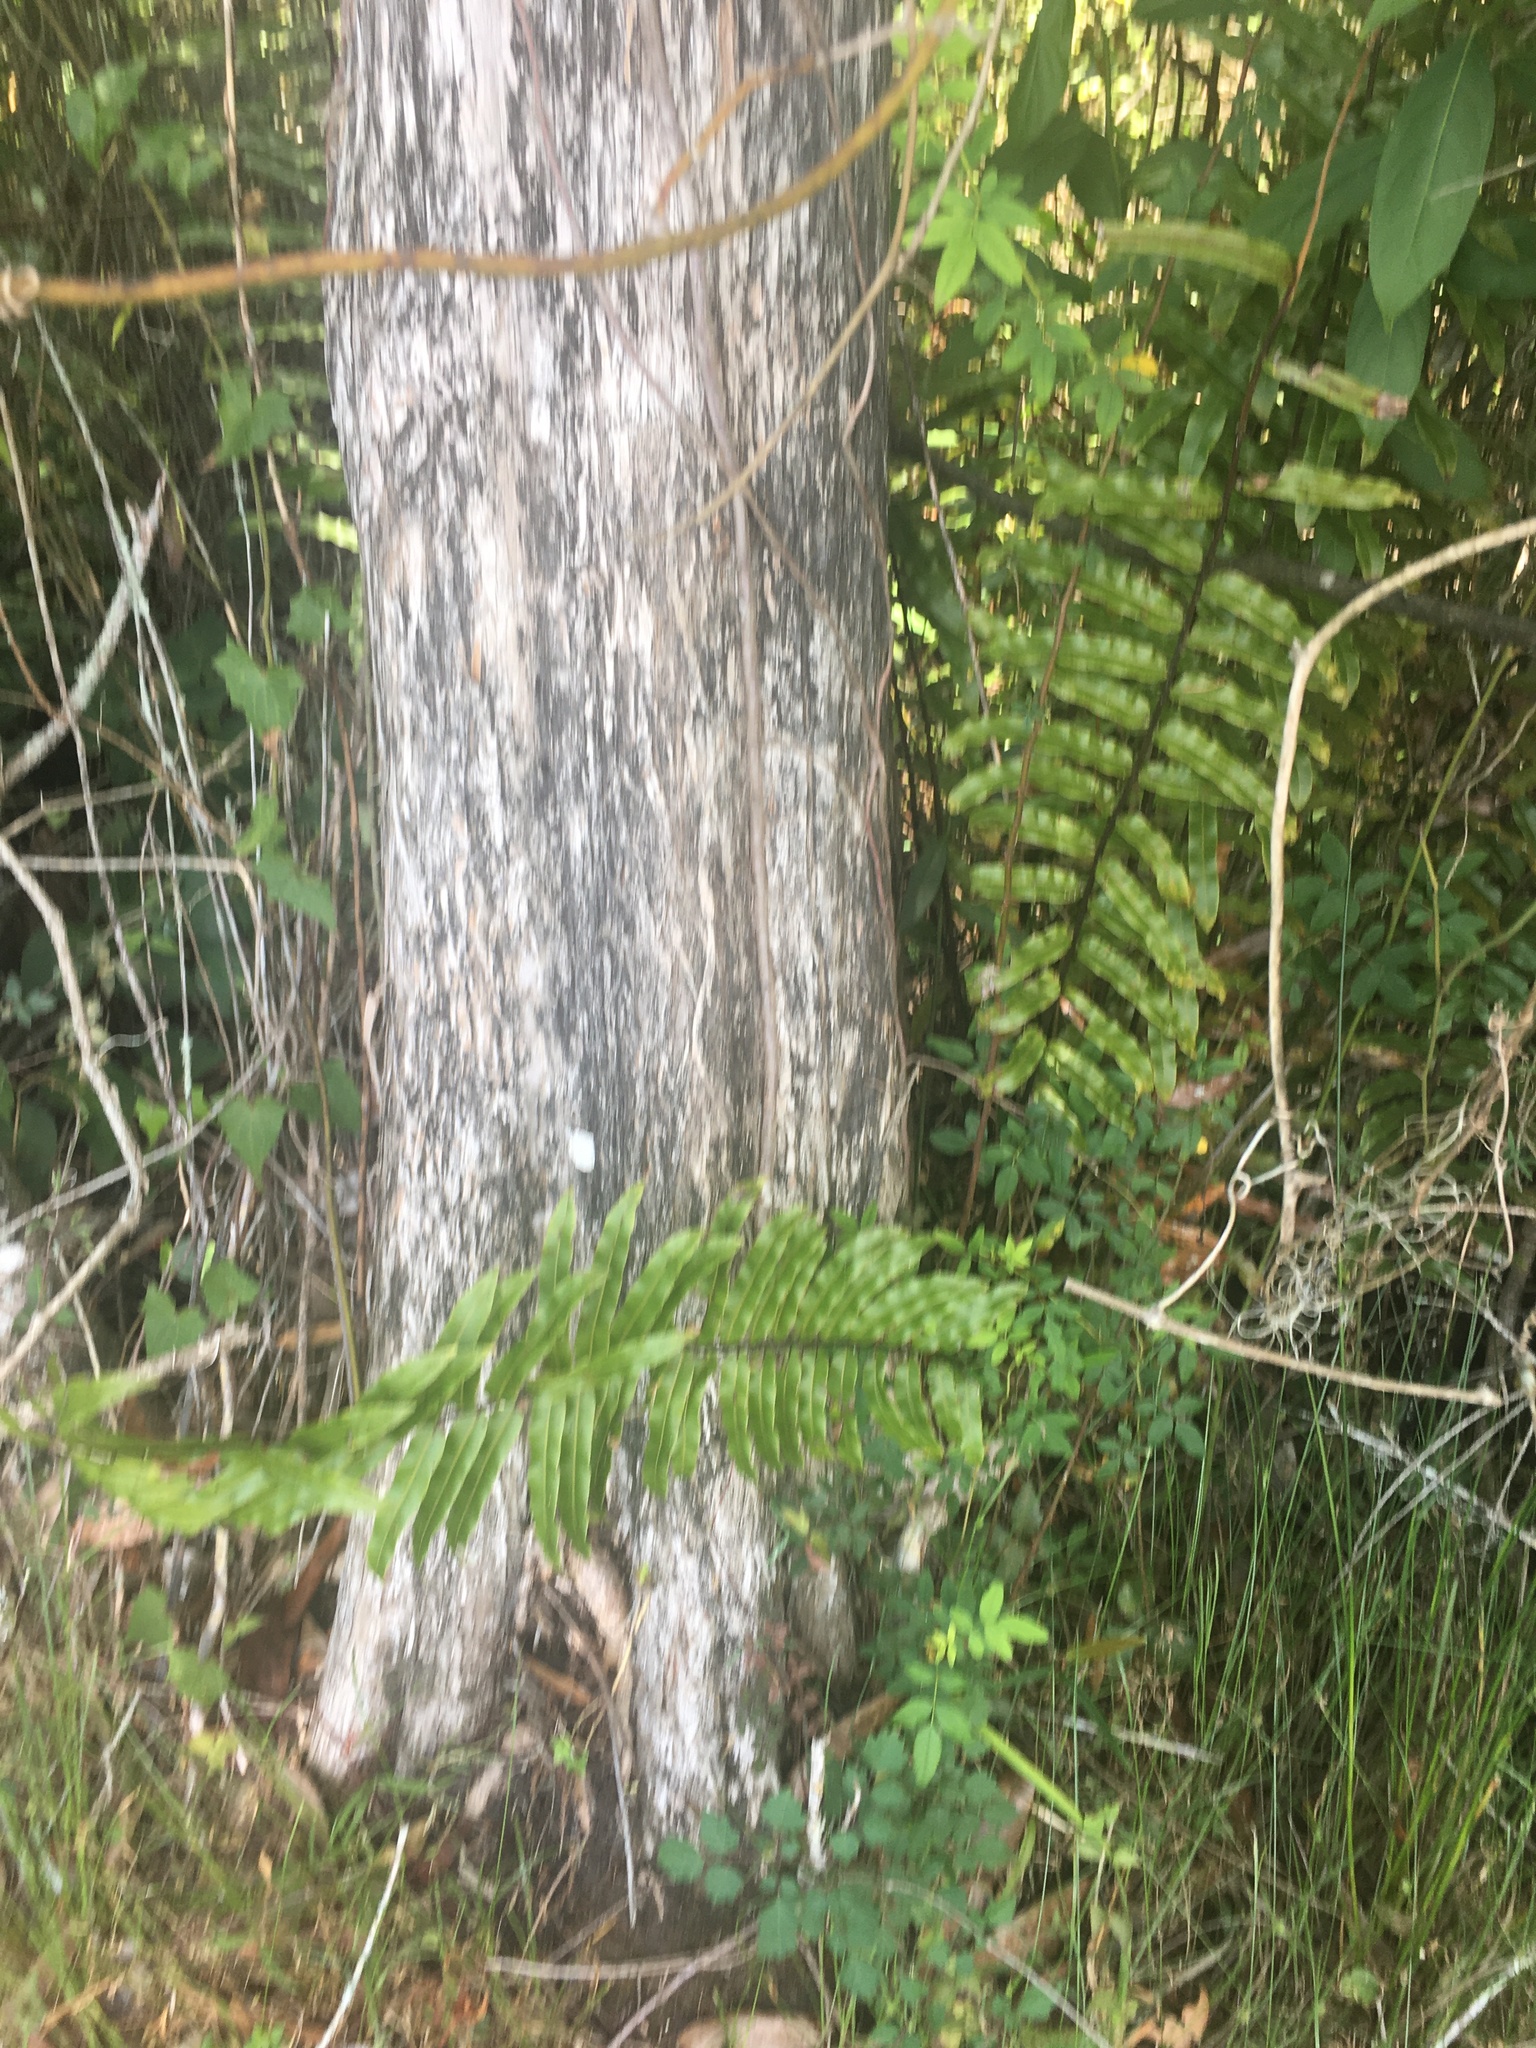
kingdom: Plantae
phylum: Tracheophyta
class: Polypodiopsida
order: Polypodiales
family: Blechnaceae
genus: Telmatoblechnum
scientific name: Telmatoblechnum serrulatum
